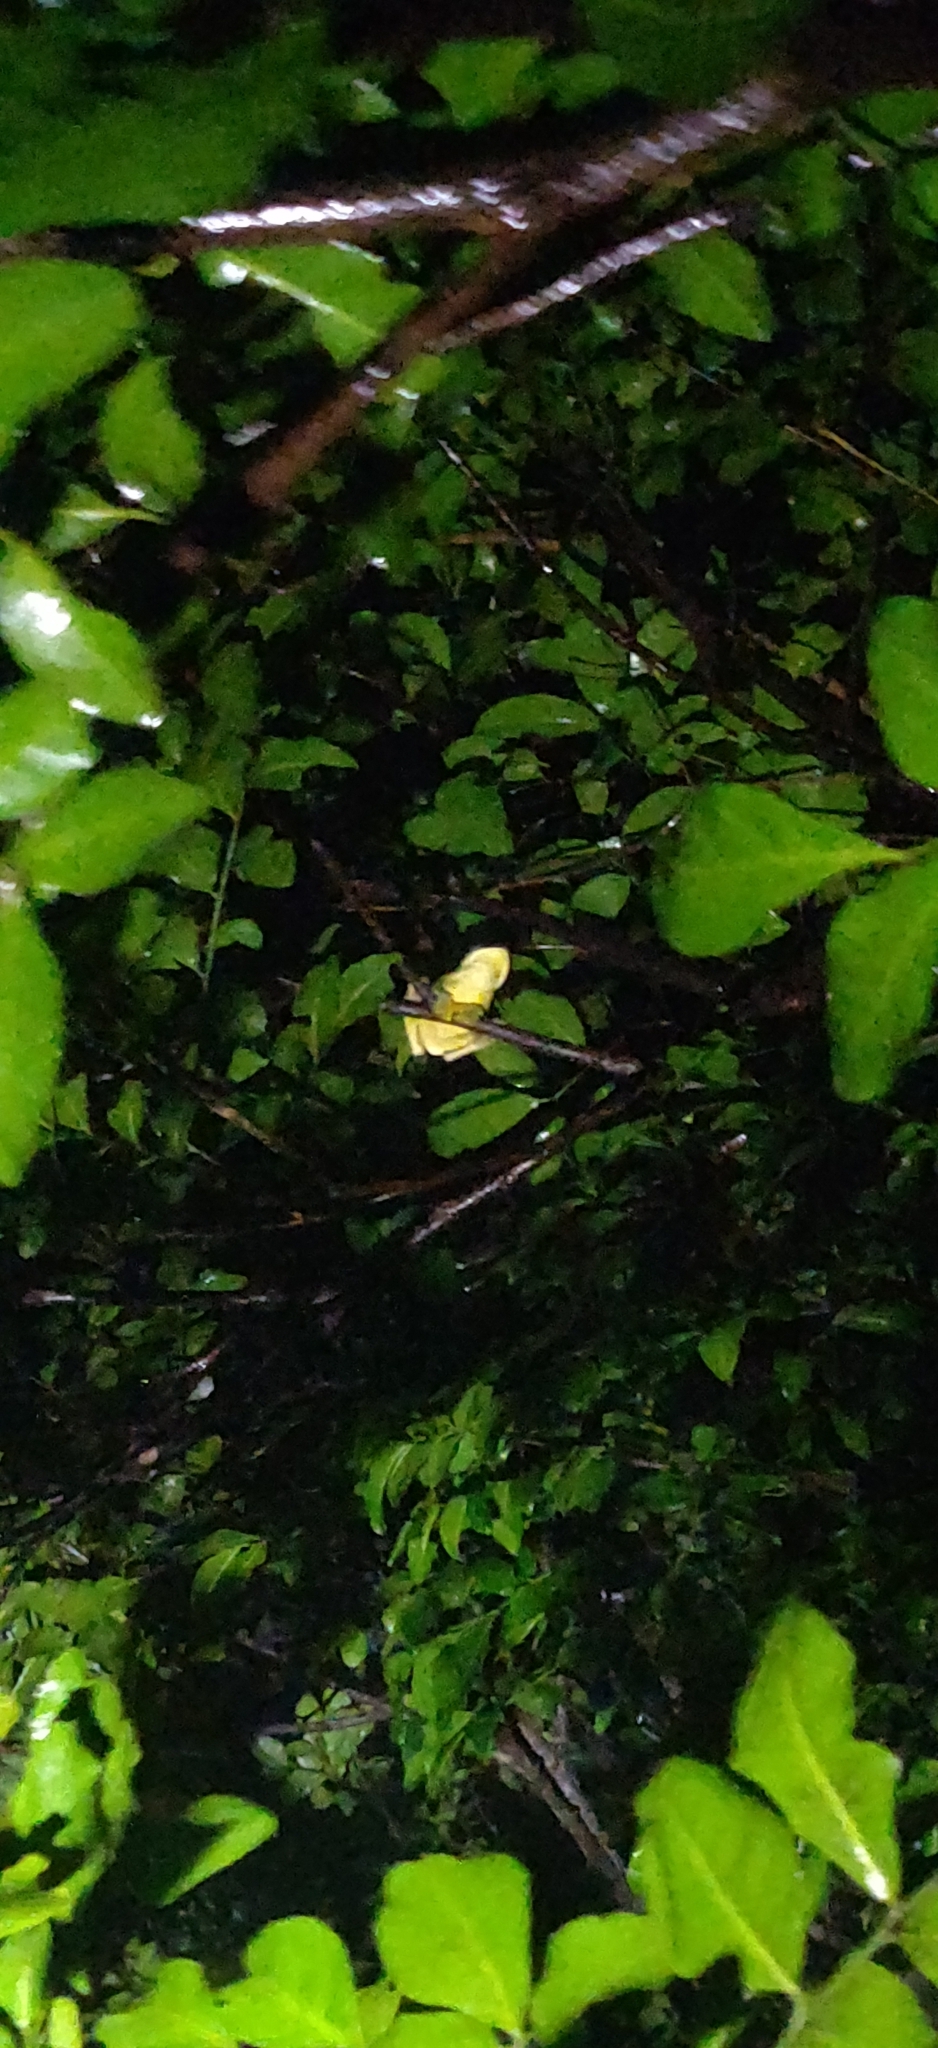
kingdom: Animalia
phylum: Chordata
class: Amphibia
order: Anura
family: Rhacophoridae
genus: Rhacophorus
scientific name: Rhacophorus malabaricus
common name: Malabar gliding frog
